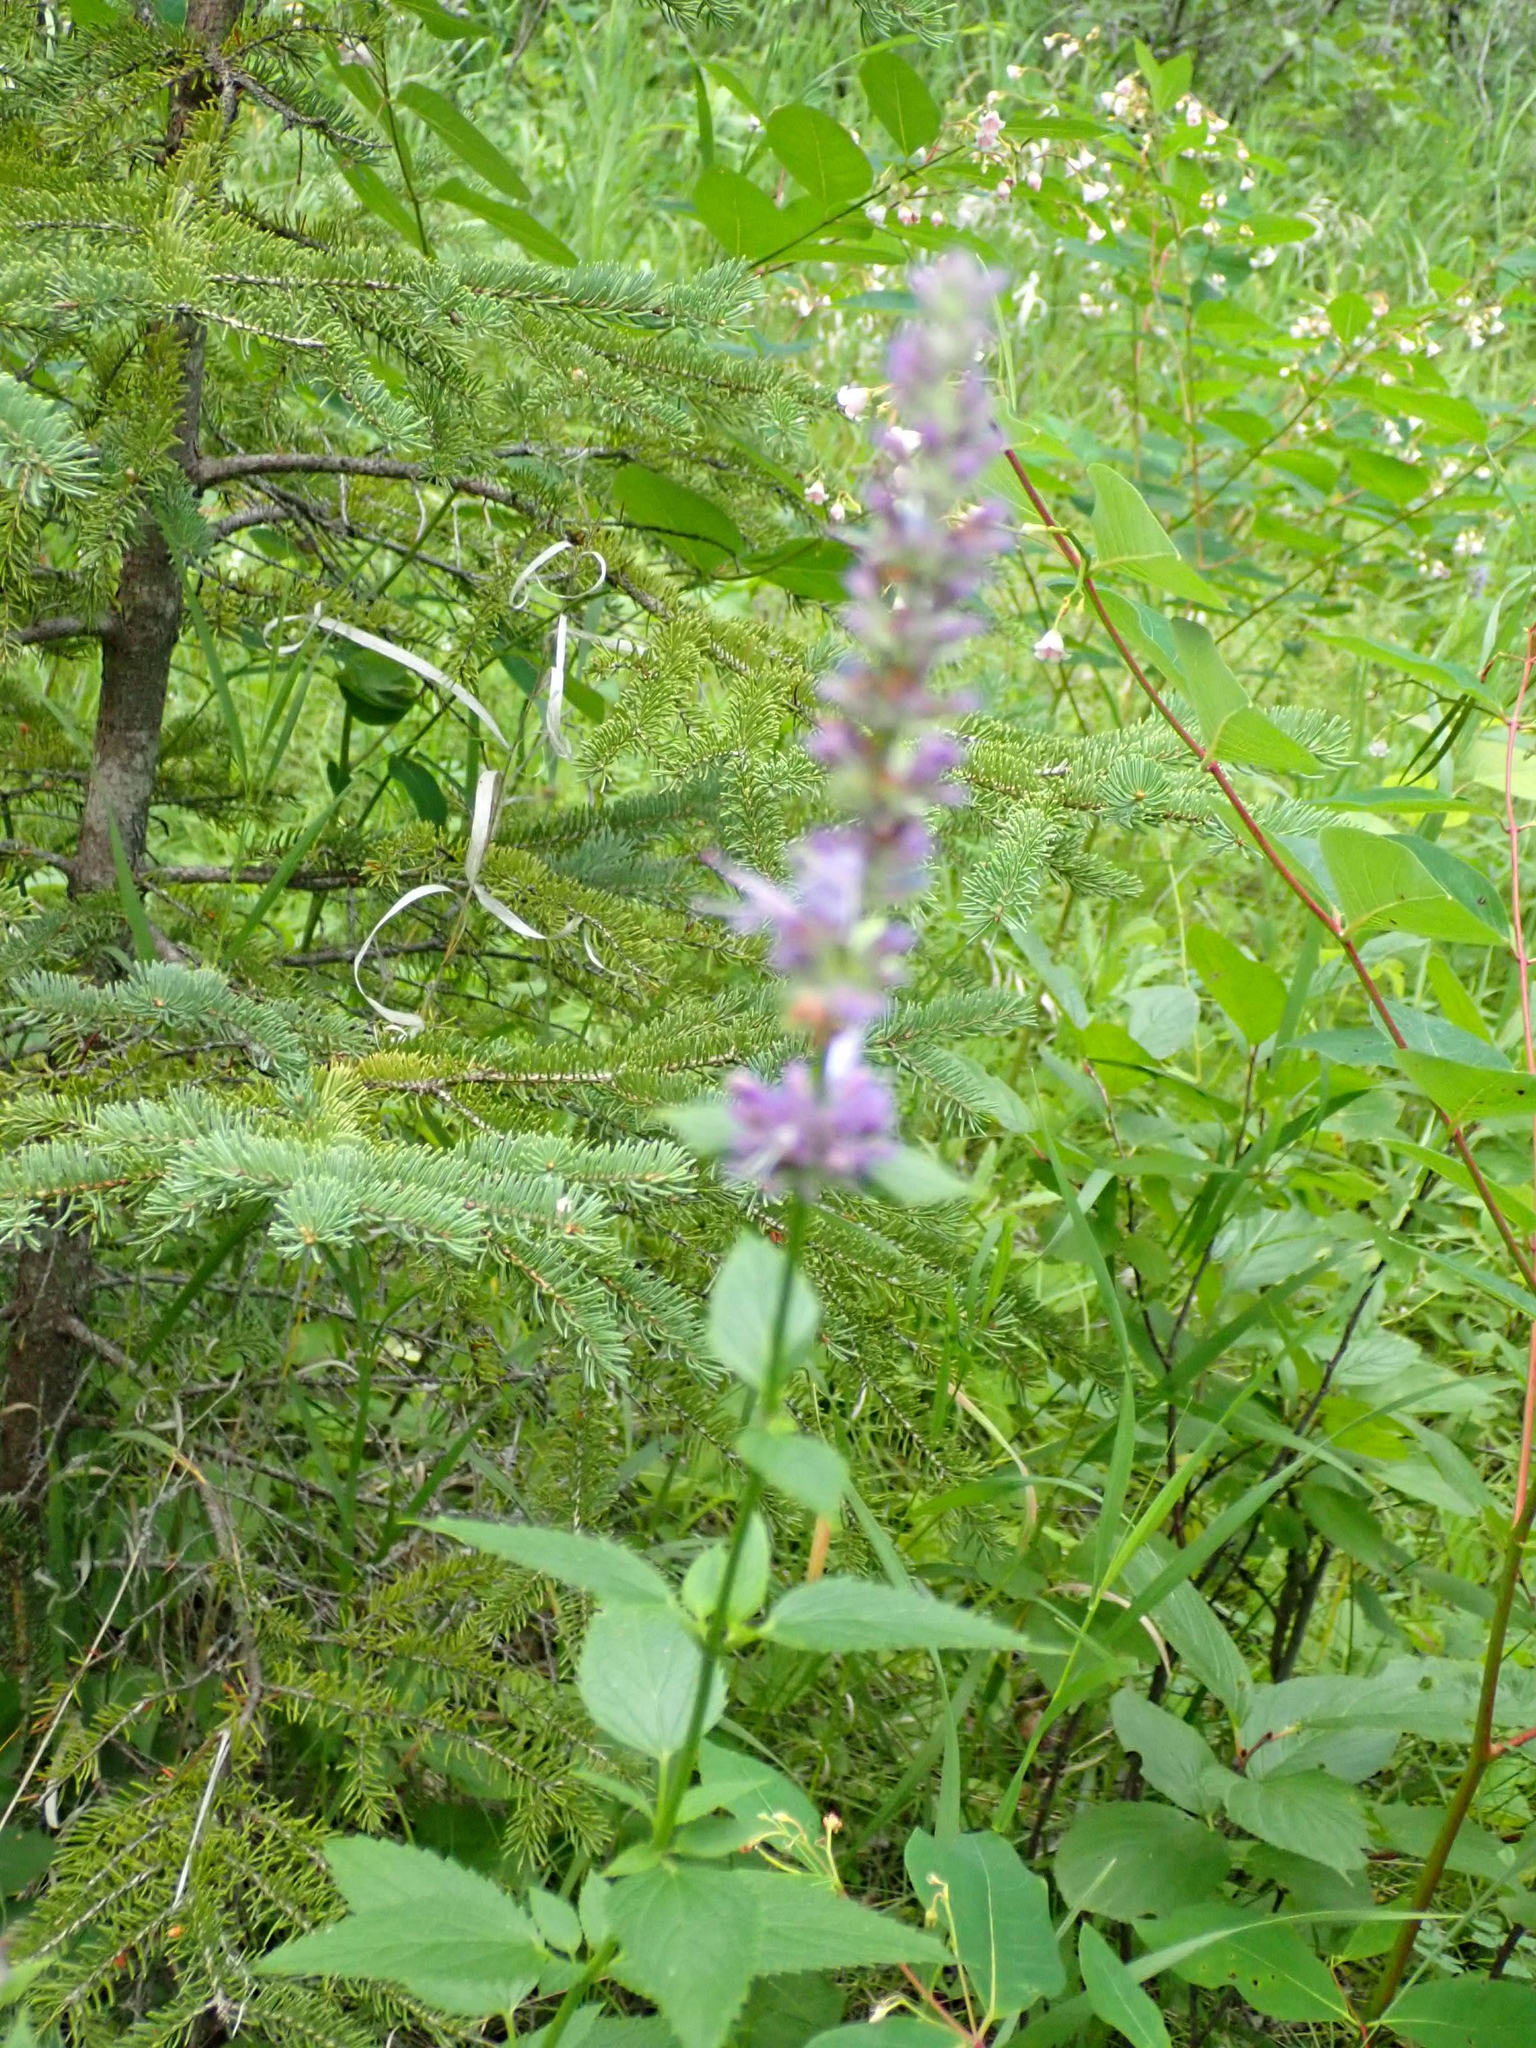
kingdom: Plantae
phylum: Tracheophyta
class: Magnoliopsida
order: Lamiales
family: Lamiaceae
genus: Agastache
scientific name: Agastache foeniculum
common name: Anise hyssop
